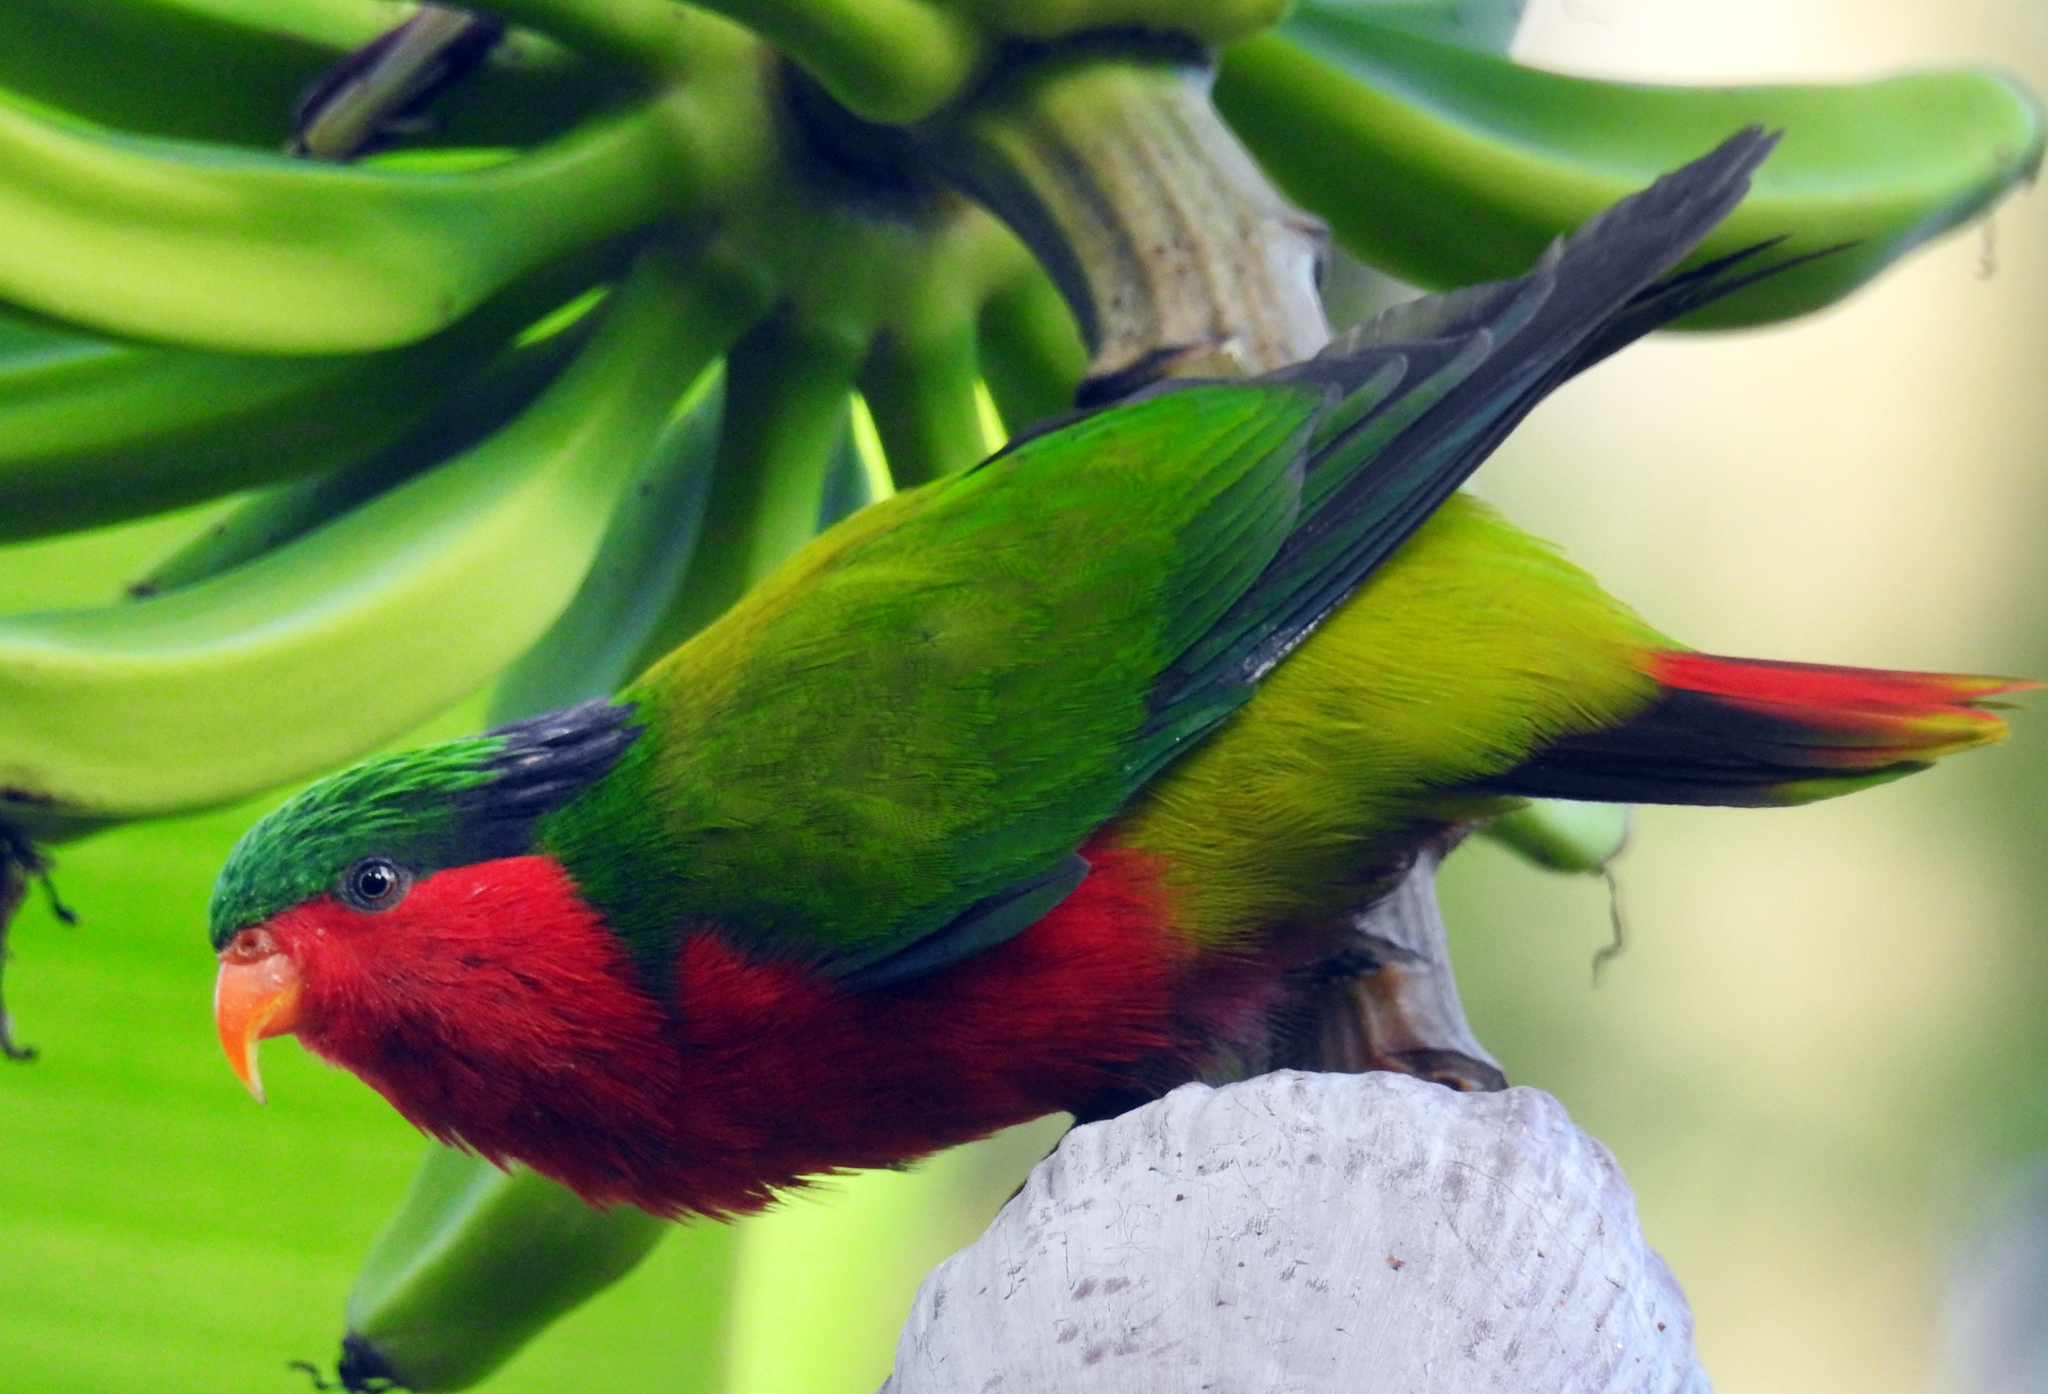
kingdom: Animalia
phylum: Chordata
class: Aves
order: Psittaciformes
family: Psittacidae
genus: Vini
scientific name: Vini kuhlii
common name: Kuhl's lorikeet
